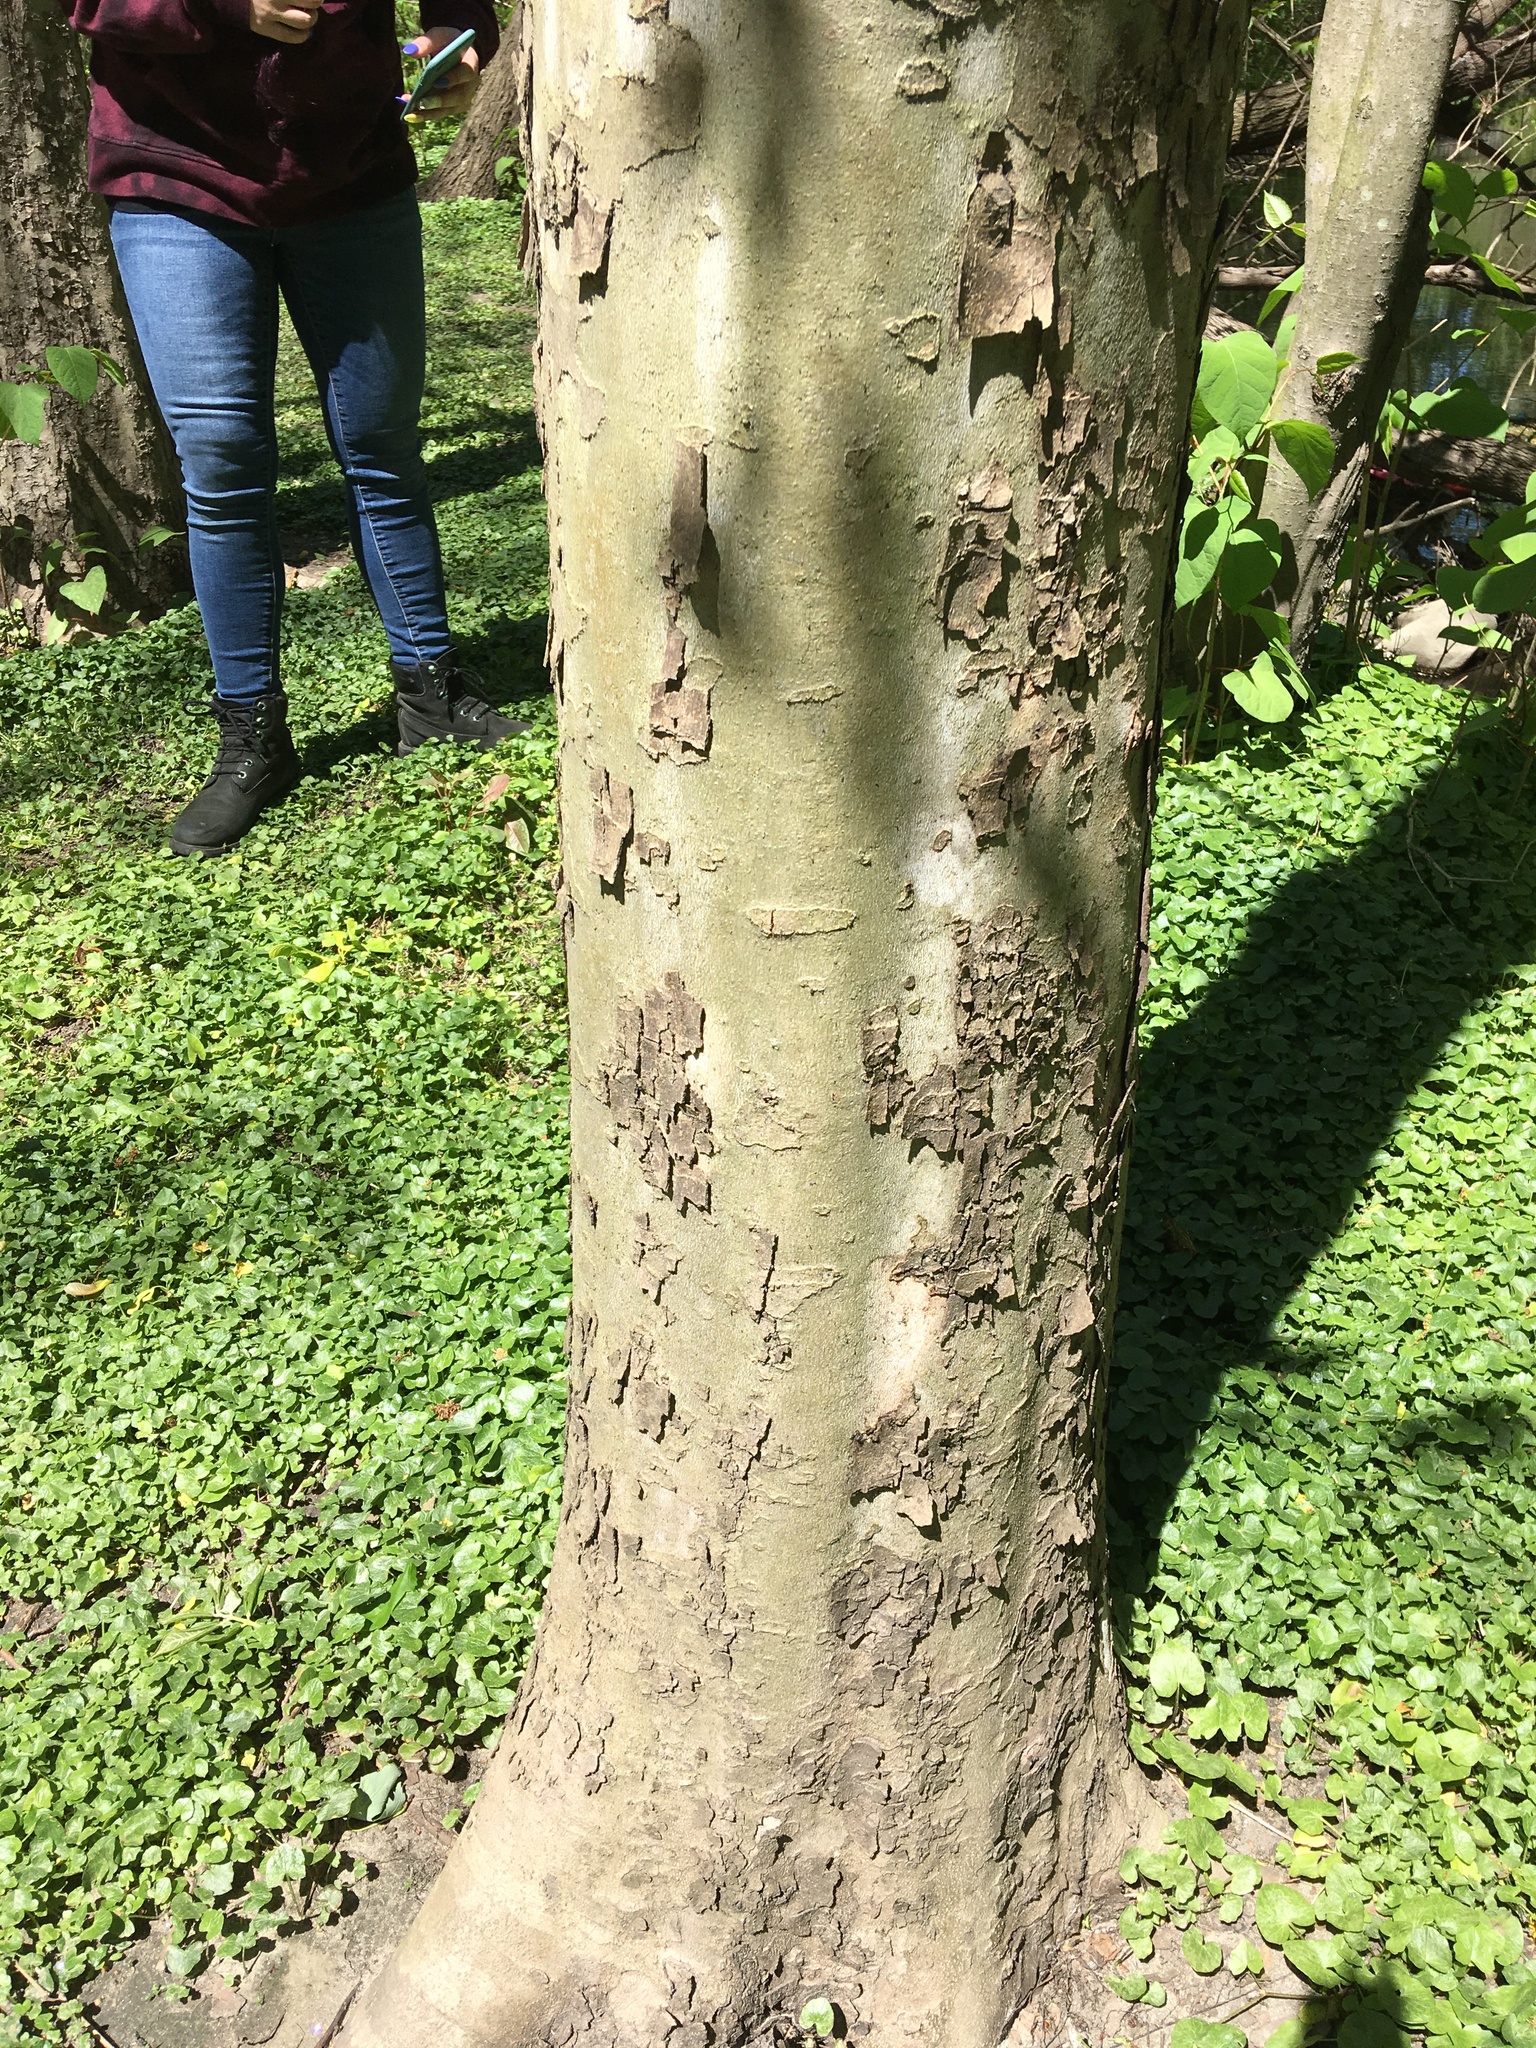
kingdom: Plantae
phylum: Tracheophyta
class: Magnoliopsida
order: Proteales
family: Platanaceae
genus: Platanus
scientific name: Platanus occidentalis
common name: American sycamore
